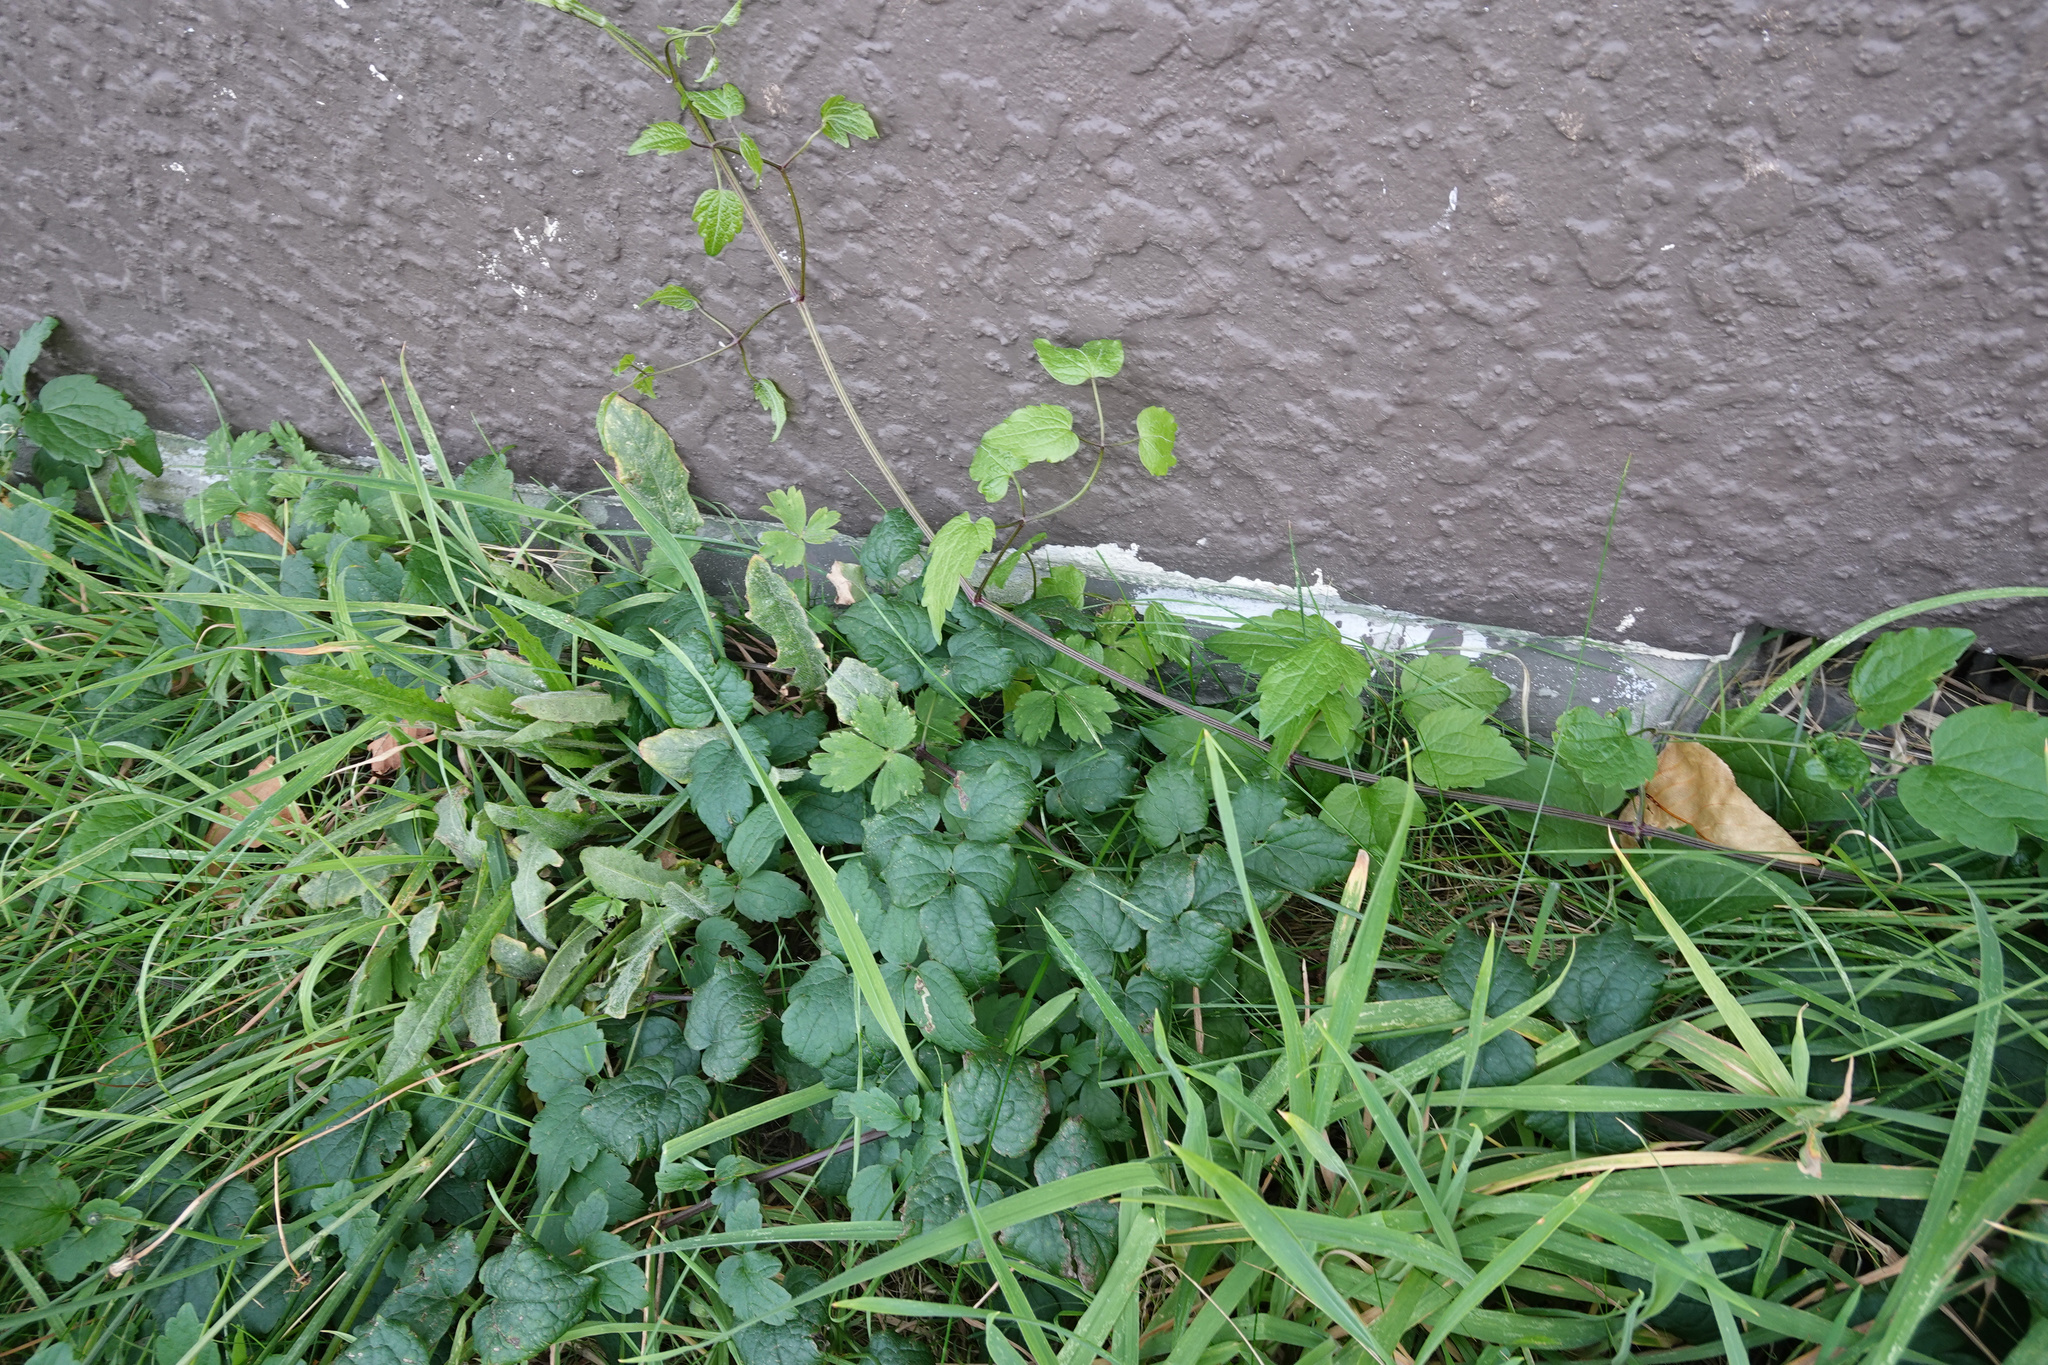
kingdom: Plantae
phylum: Tracheophyta
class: Magnoliopsida
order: Ranunculales
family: Ranunculaceae
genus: Clematis
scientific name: Clematis vitalba
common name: Evergreen clematis
